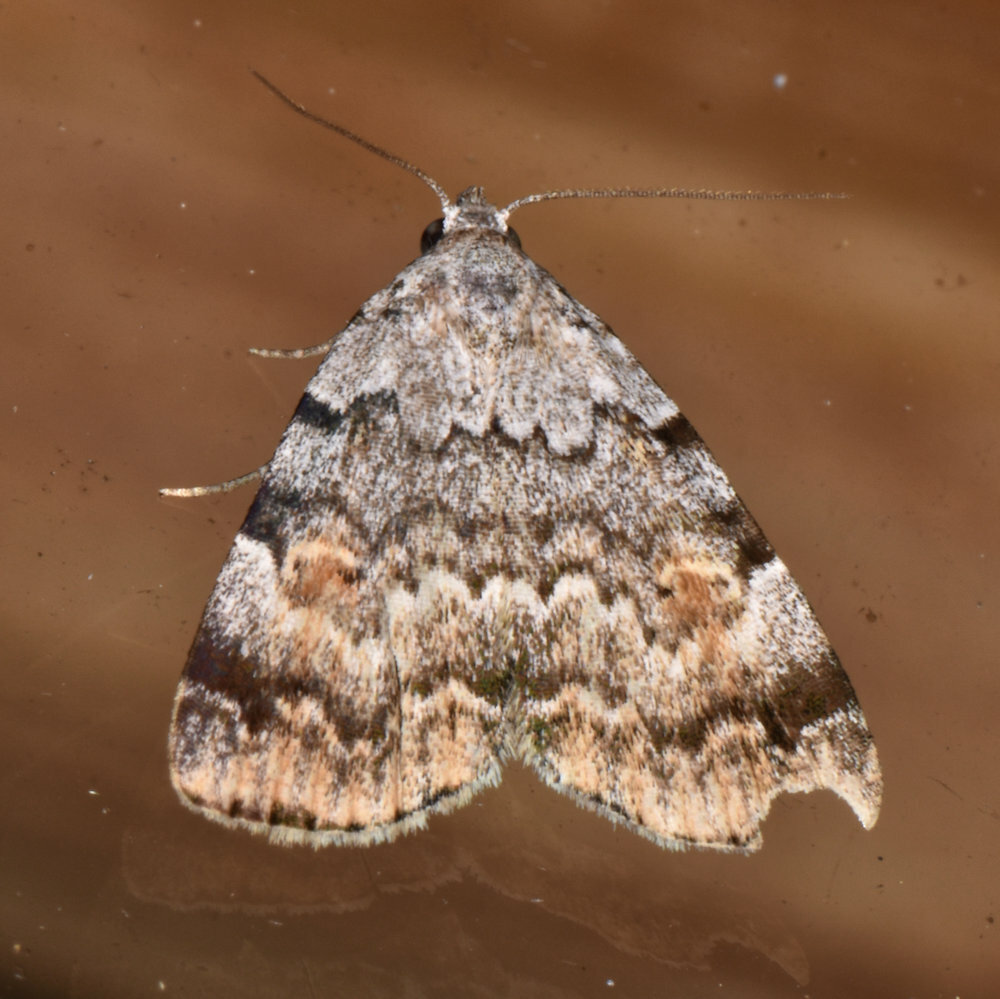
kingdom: Animalia
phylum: Arthropoda
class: Insecta
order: Lepidoptera
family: Erebidae
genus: Idia
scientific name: Idia americalis
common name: American idia moth
